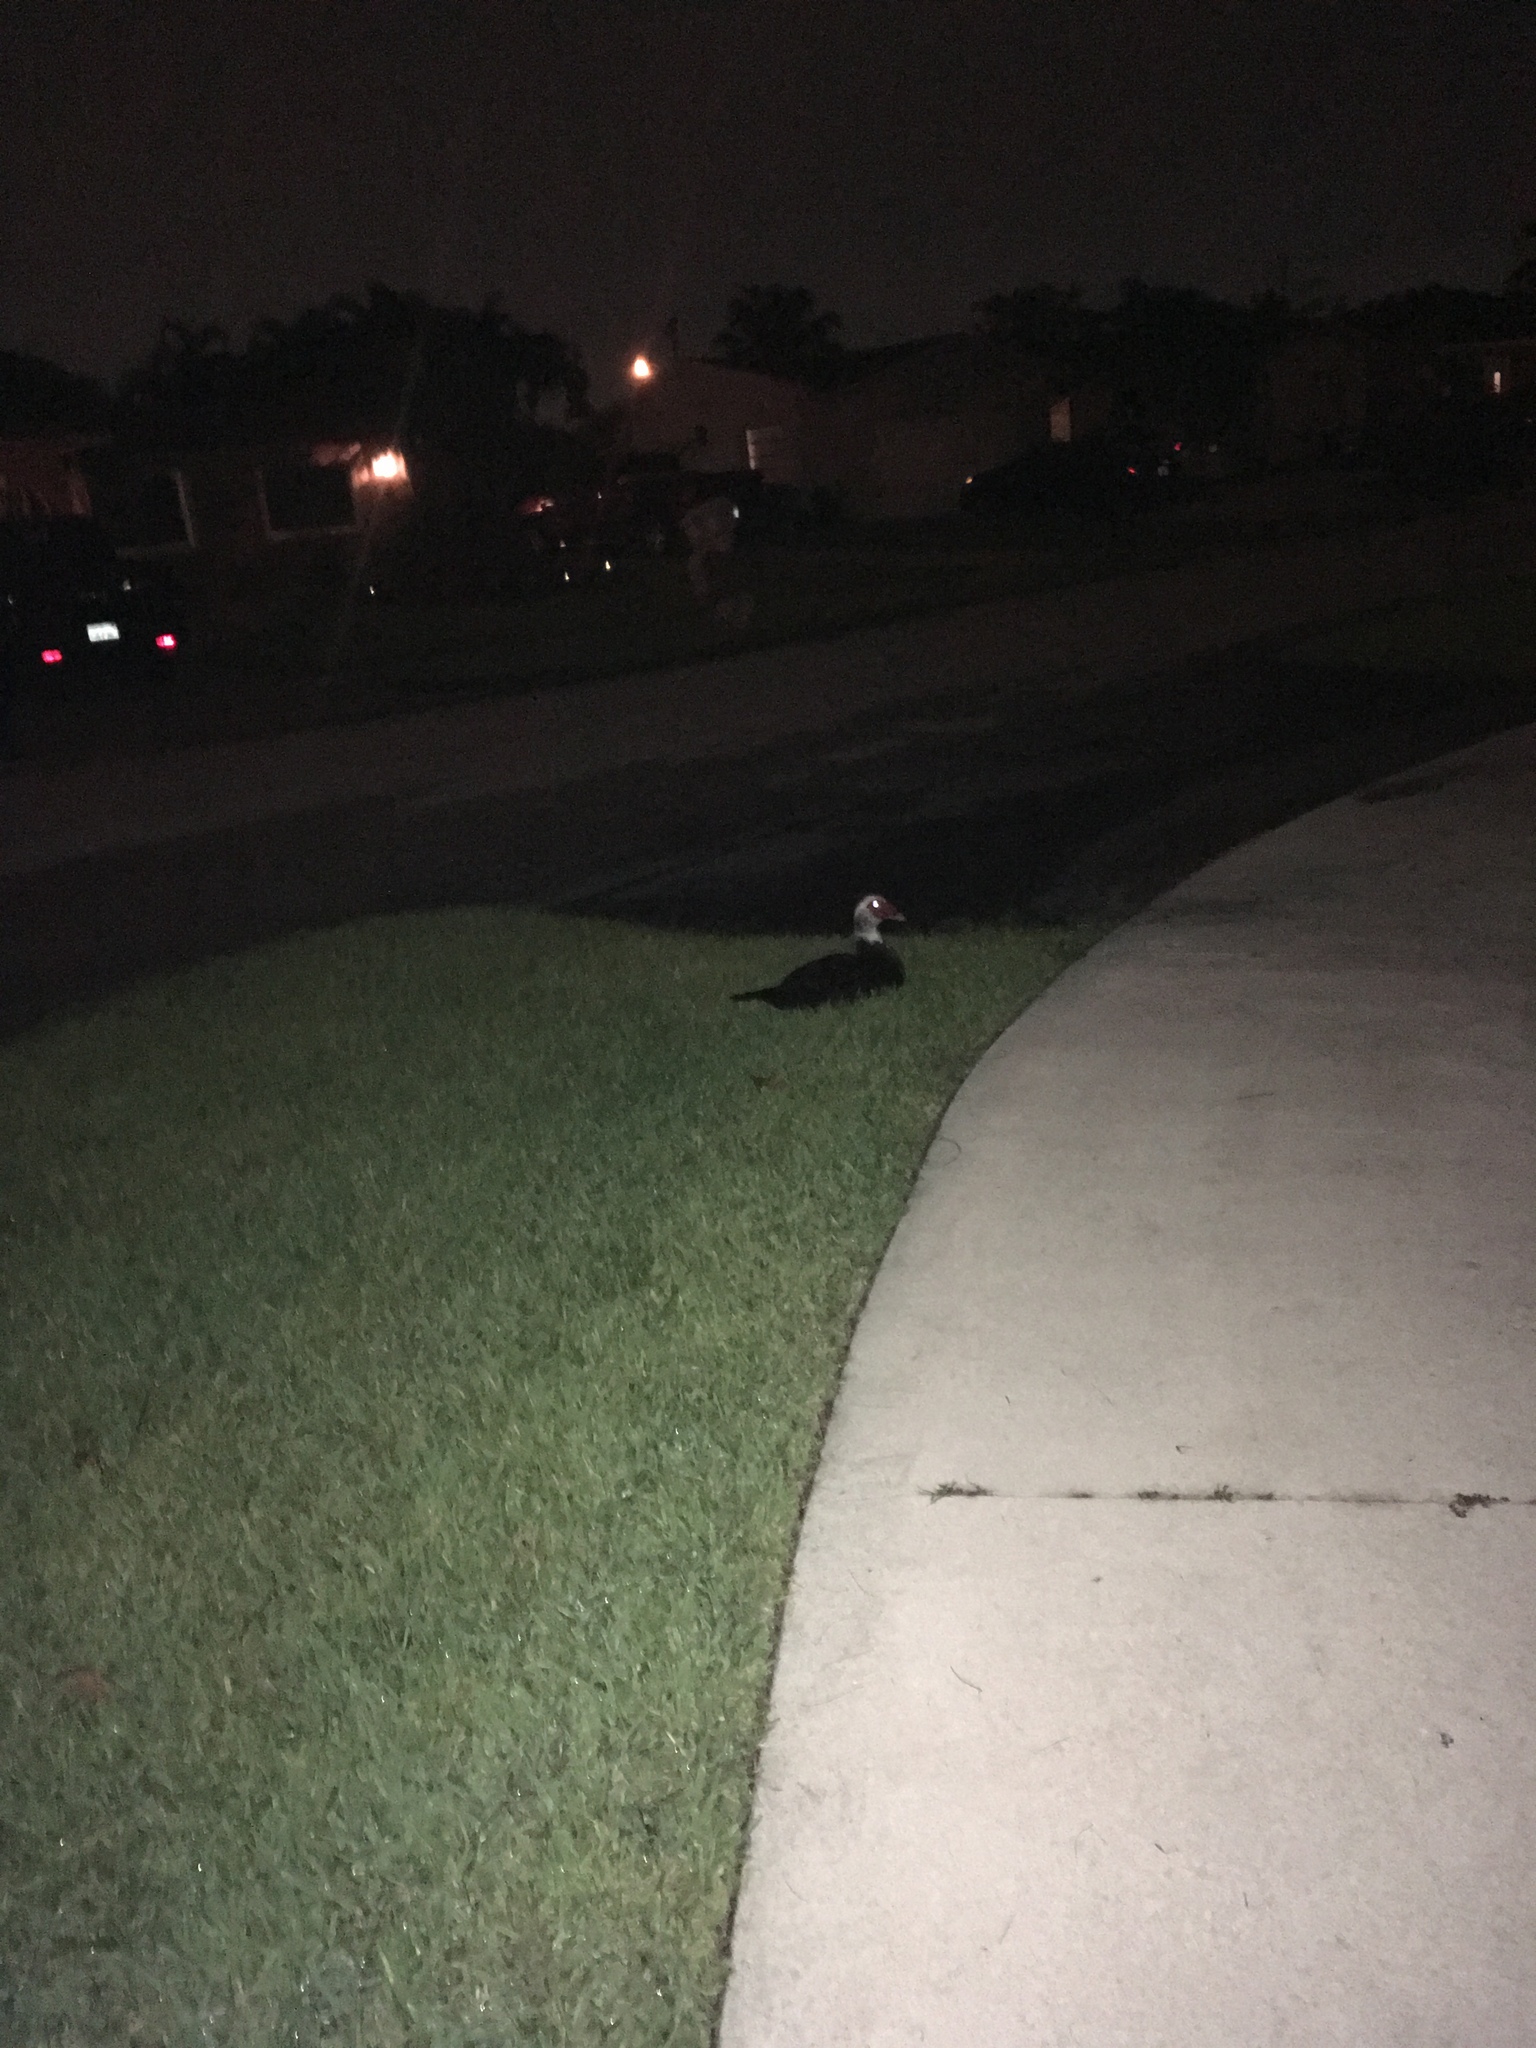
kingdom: Animalia
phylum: Chordata
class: Aves
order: Anseriformes
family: Anatidae
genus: Cairina
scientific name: Cairina moschata
